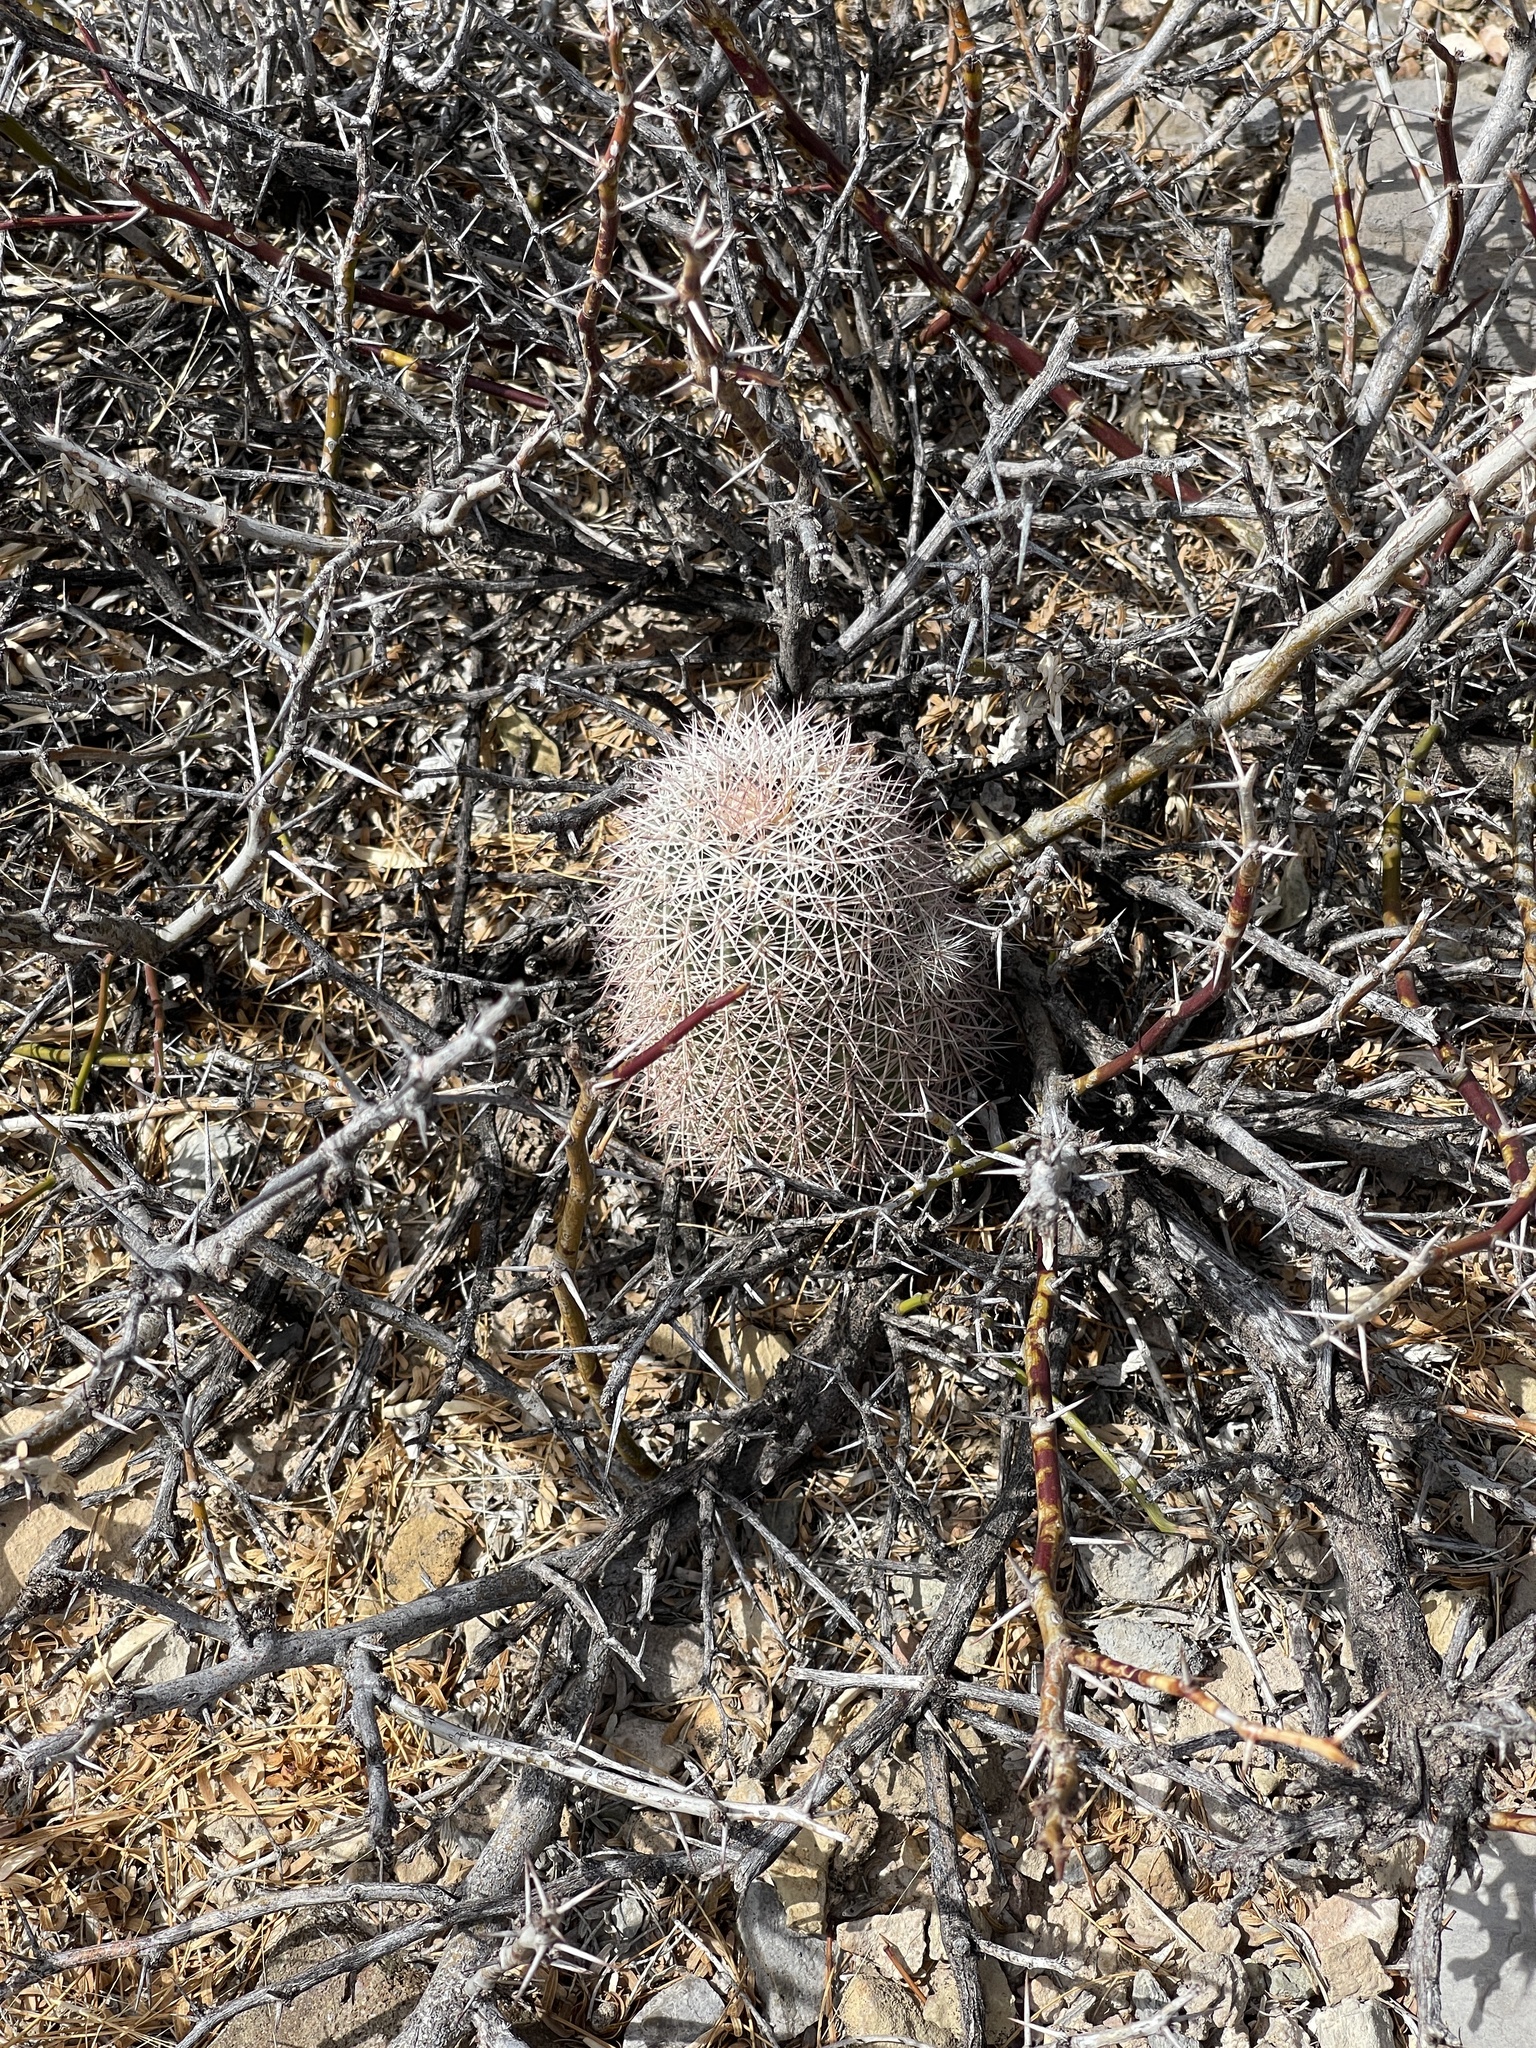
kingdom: Plantae
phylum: Tracheophyta
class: Magnoliopsida
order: Caryophyllales
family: Cactaceae
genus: Echinocereus
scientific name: Echinocereus dasyacanthus
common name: Spiny hedgehog cactus
